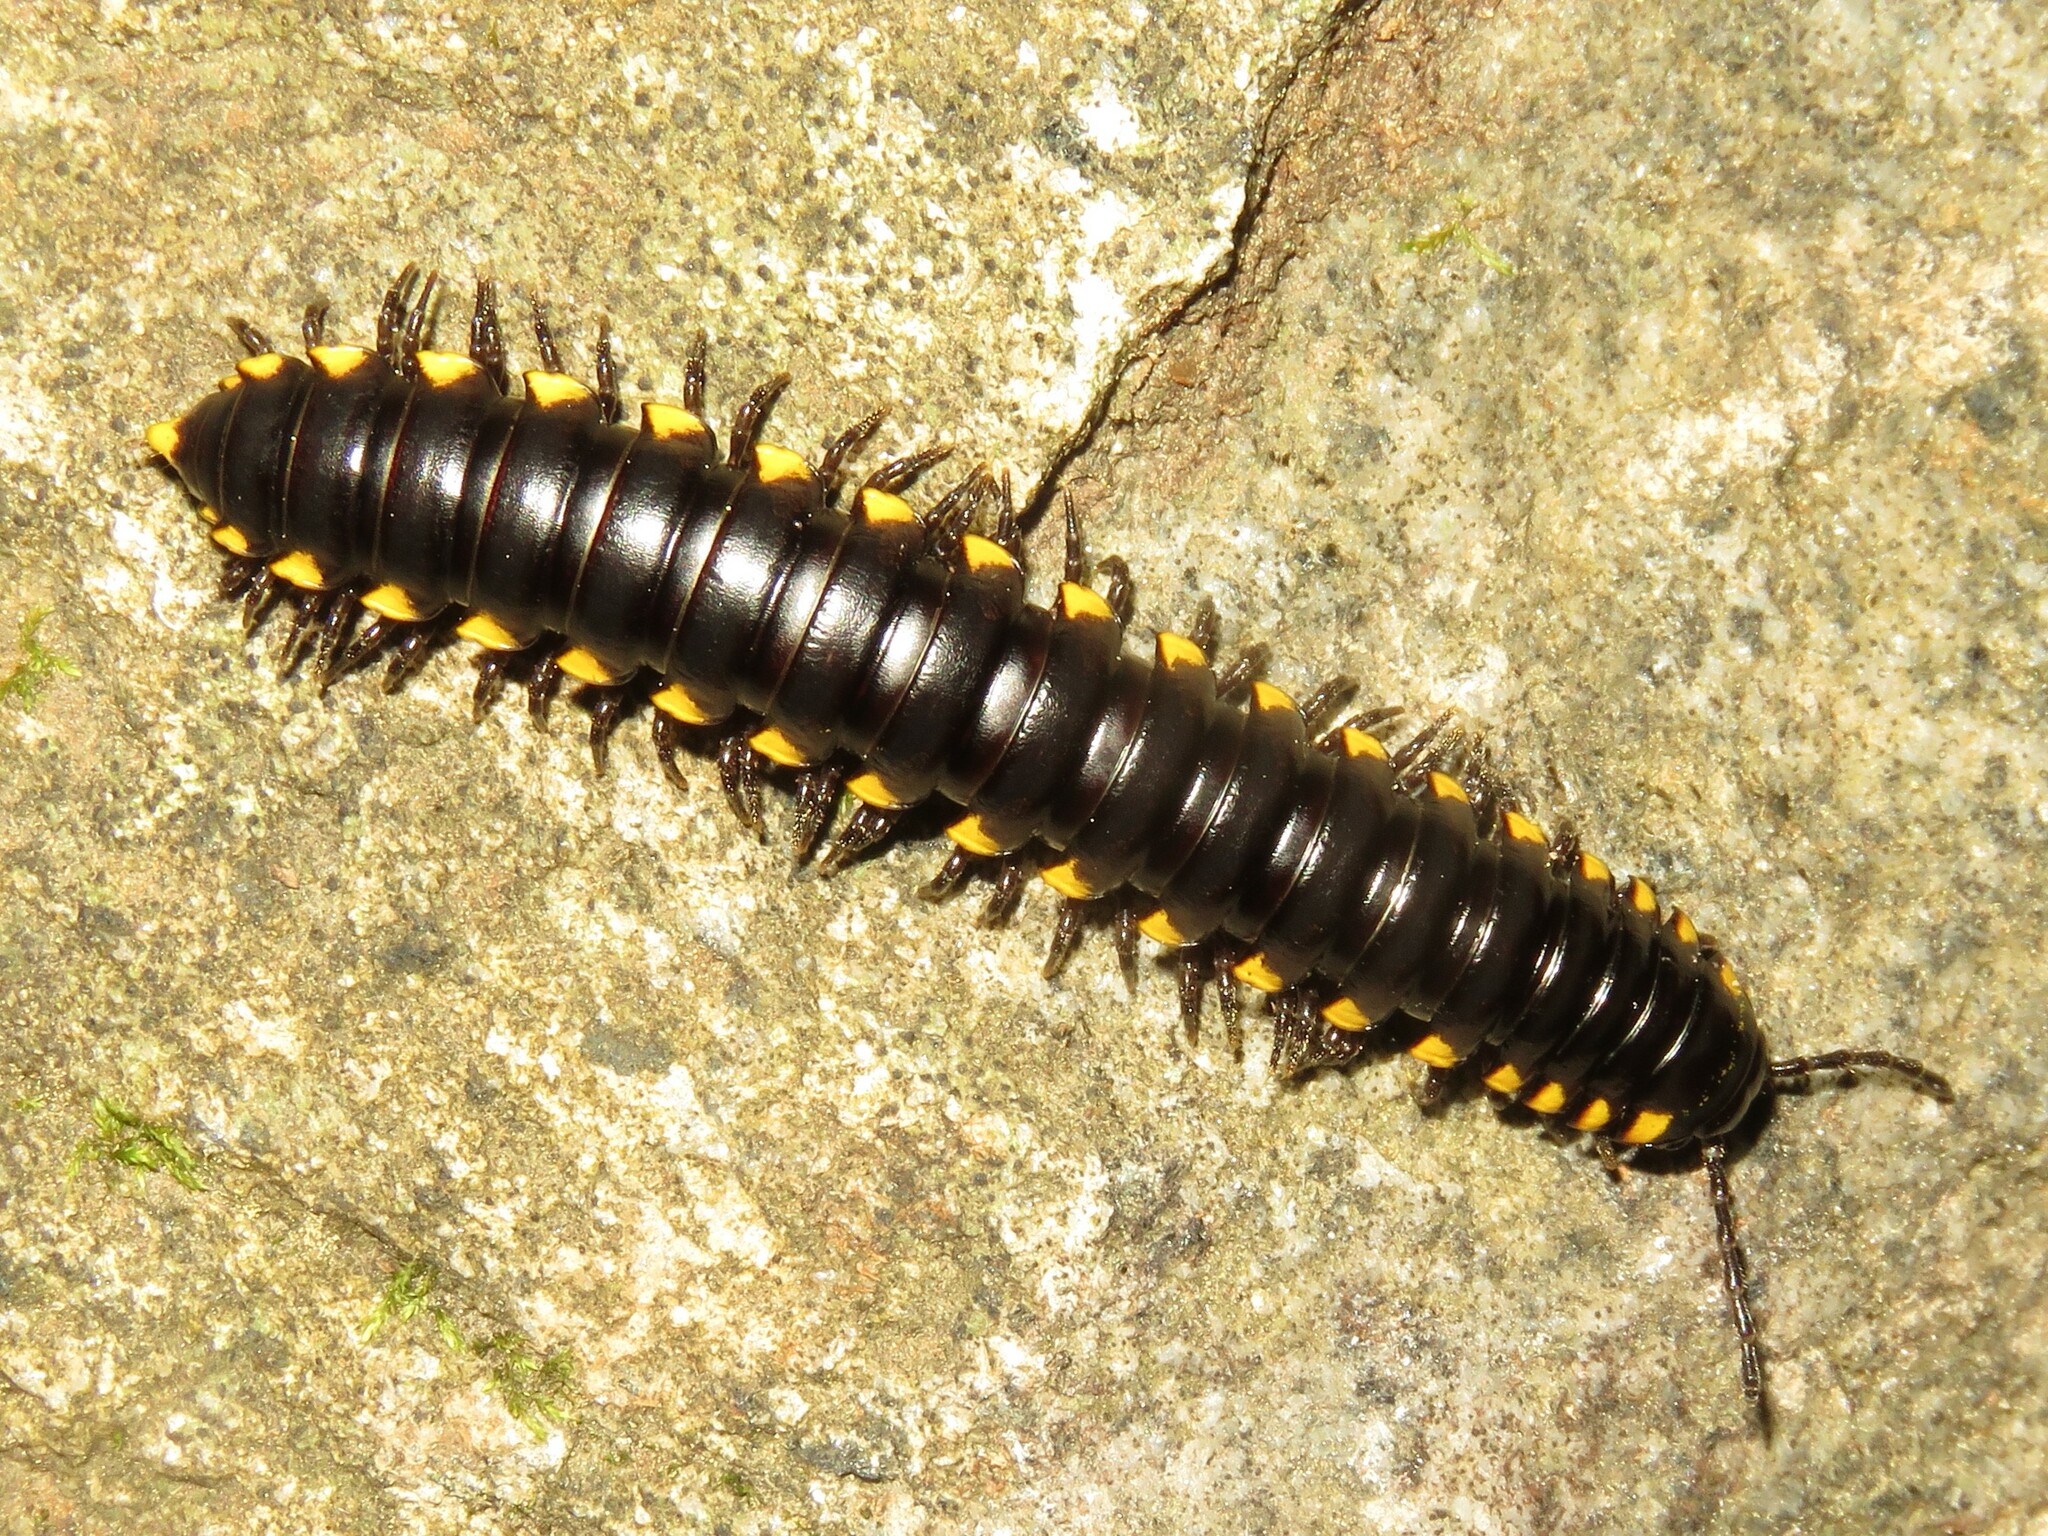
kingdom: Animalia
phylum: Arthropoda
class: Diplopoda
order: Polydesmida
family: Xystodesmidae
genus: Harpaphe
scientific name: Harpaphe haydeniana
